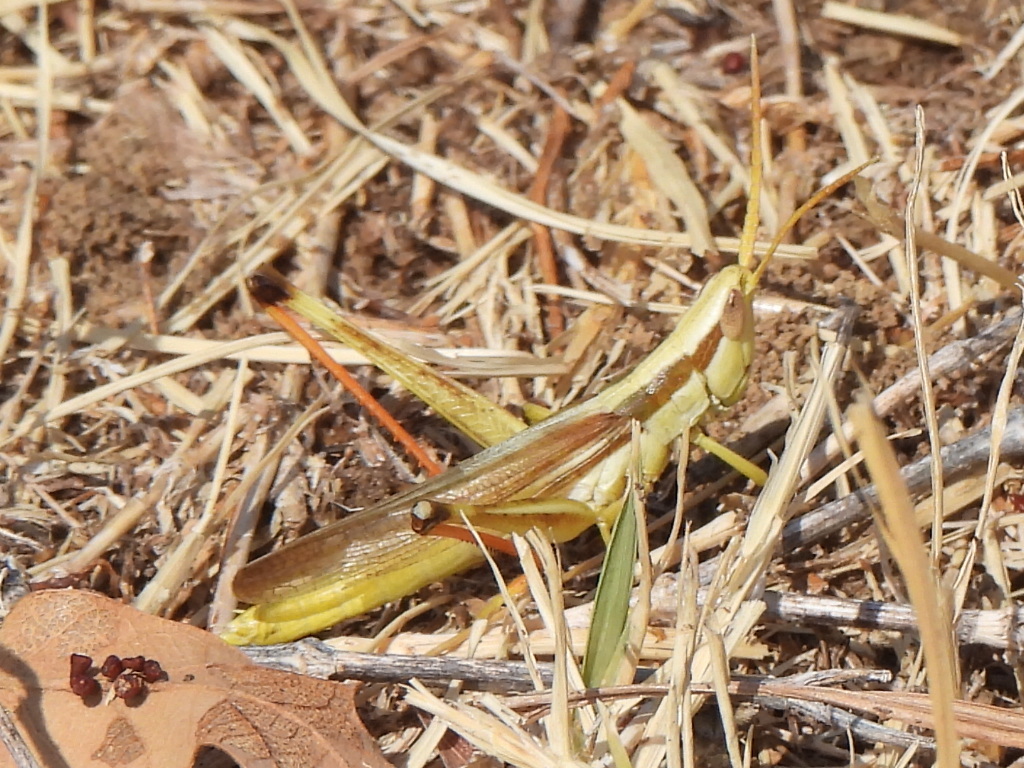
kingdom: Animalia
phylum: Arthropoda
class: Insecta
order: Orthoptera
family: Acrididae
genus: Mermiria
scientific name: Mermiria bivittata
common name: Two-striped mermiria grasshopper
